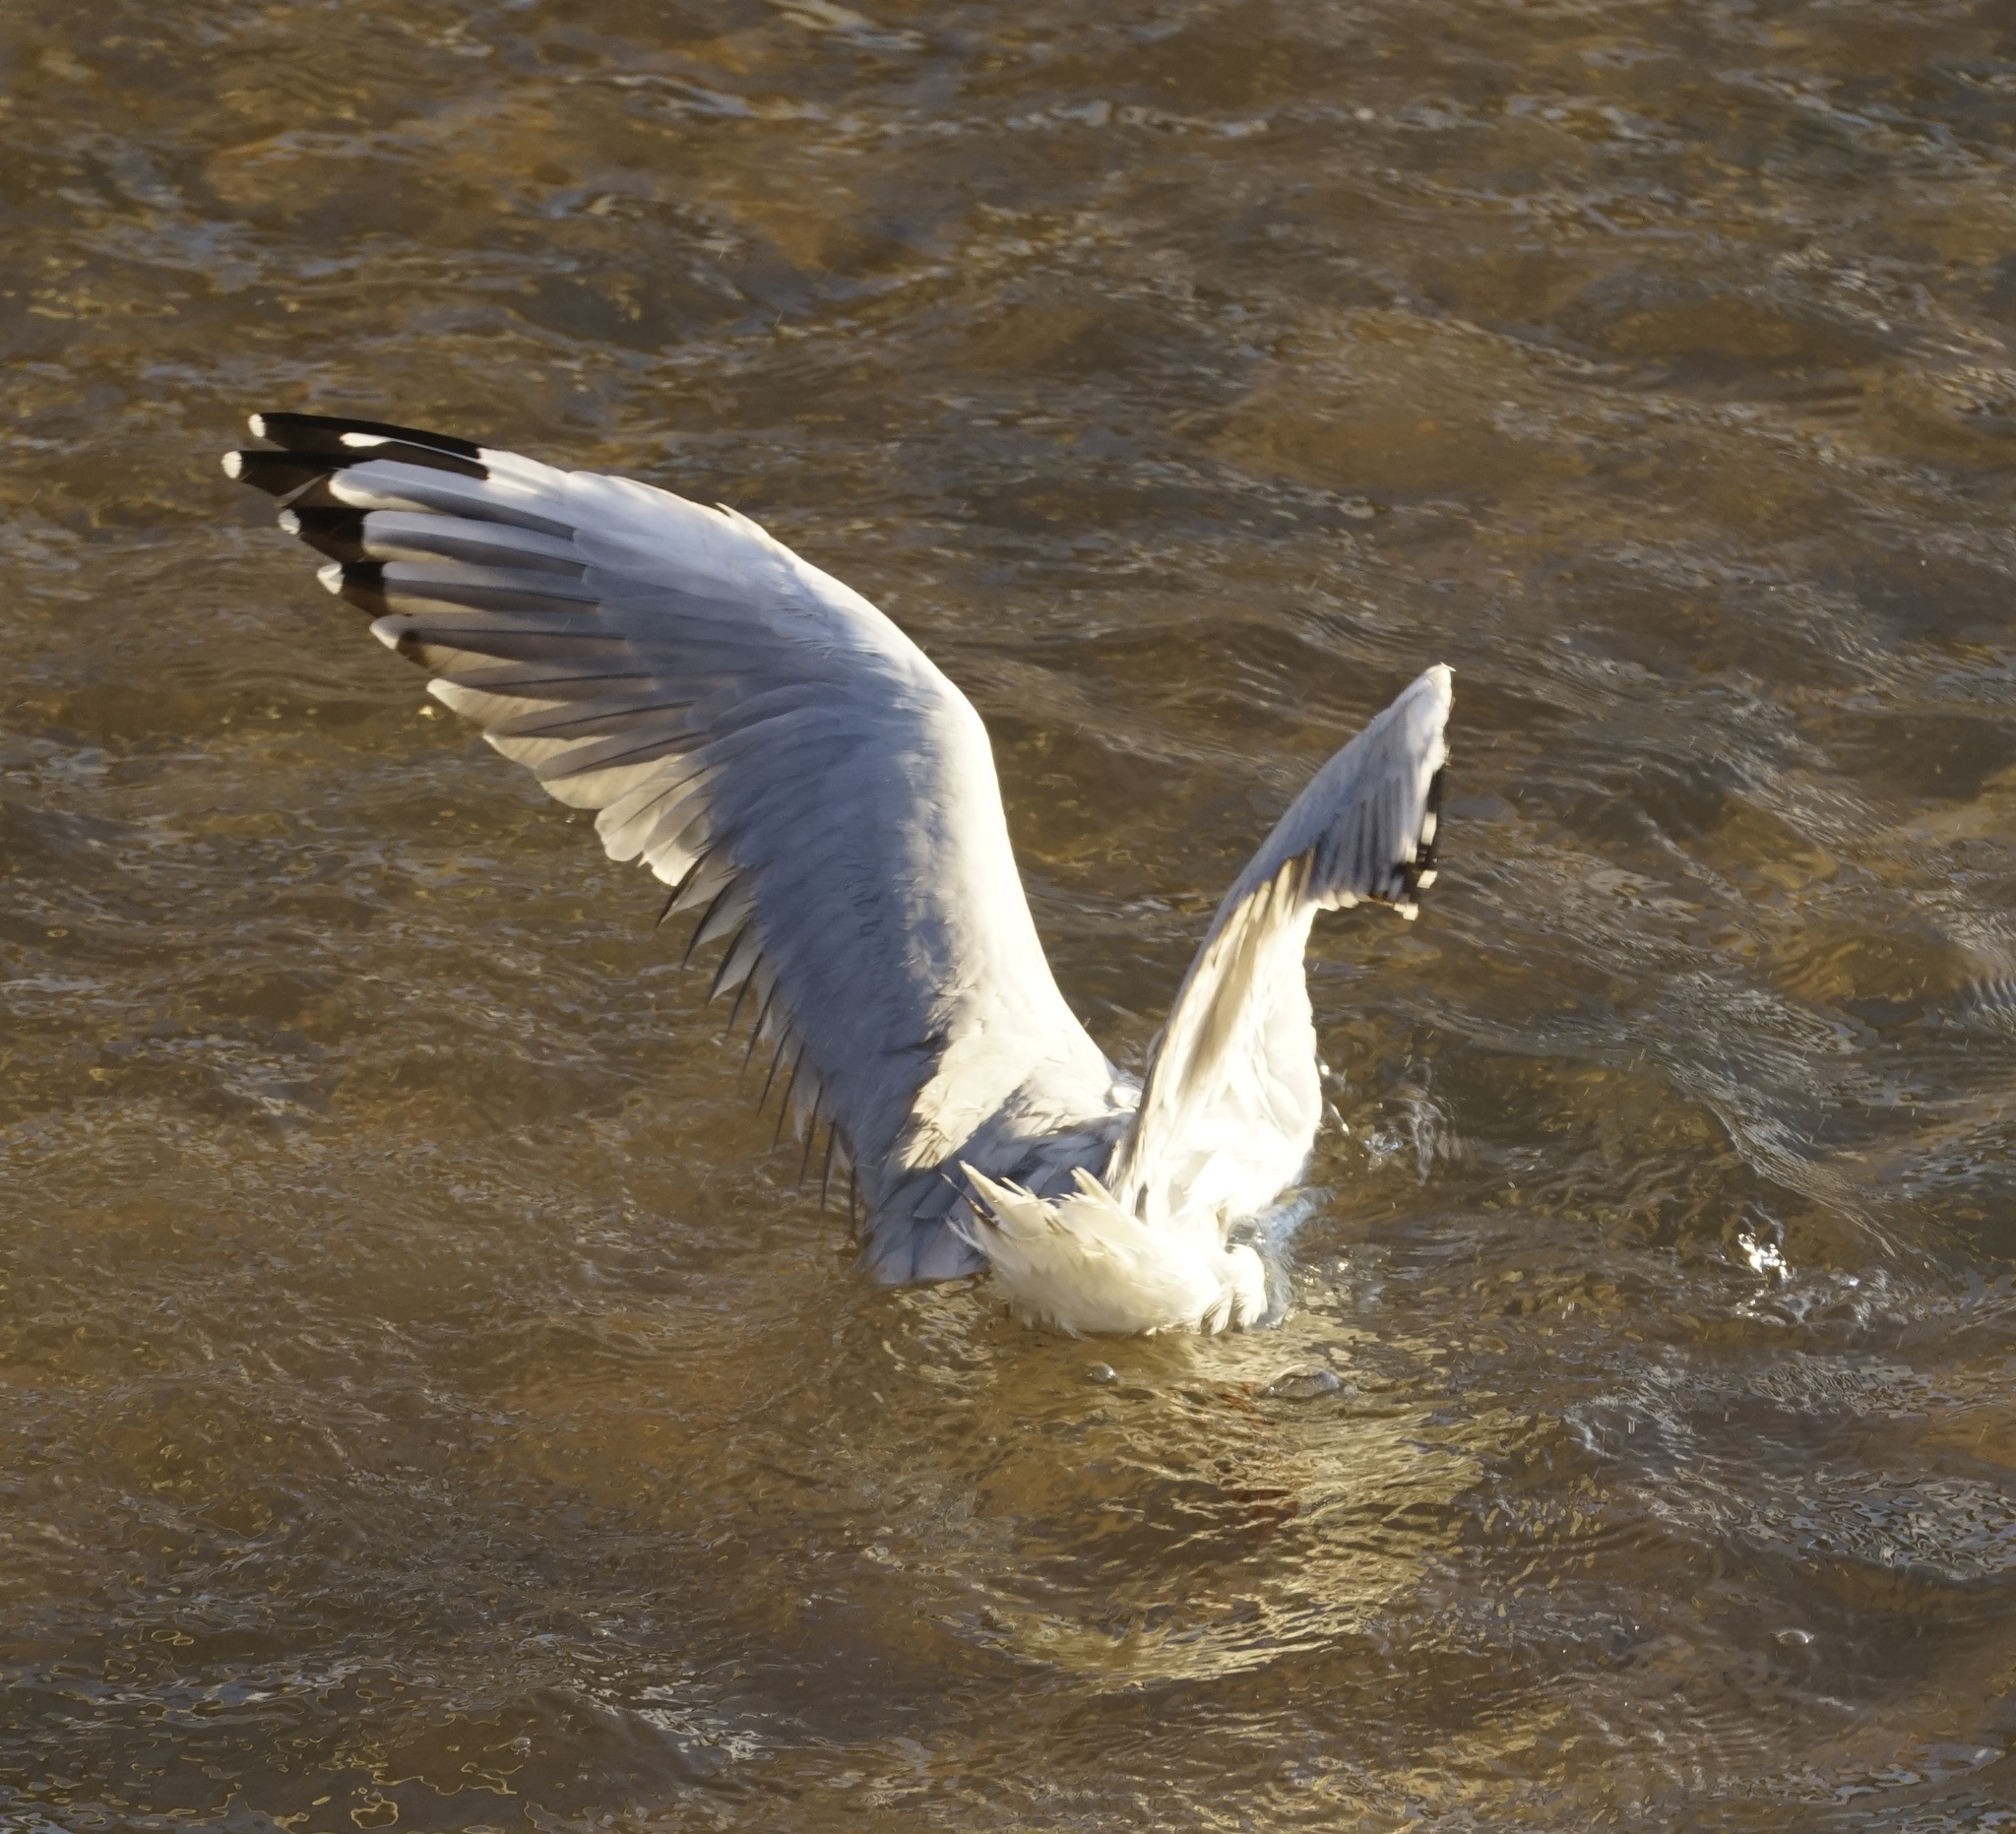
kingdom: Animalia
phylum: Chordata
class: Aves
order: Charadriiformes
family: Laridae
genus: Chroicocephalus
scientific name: Chroicocephalus novaehollandiae
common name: Silver gull
